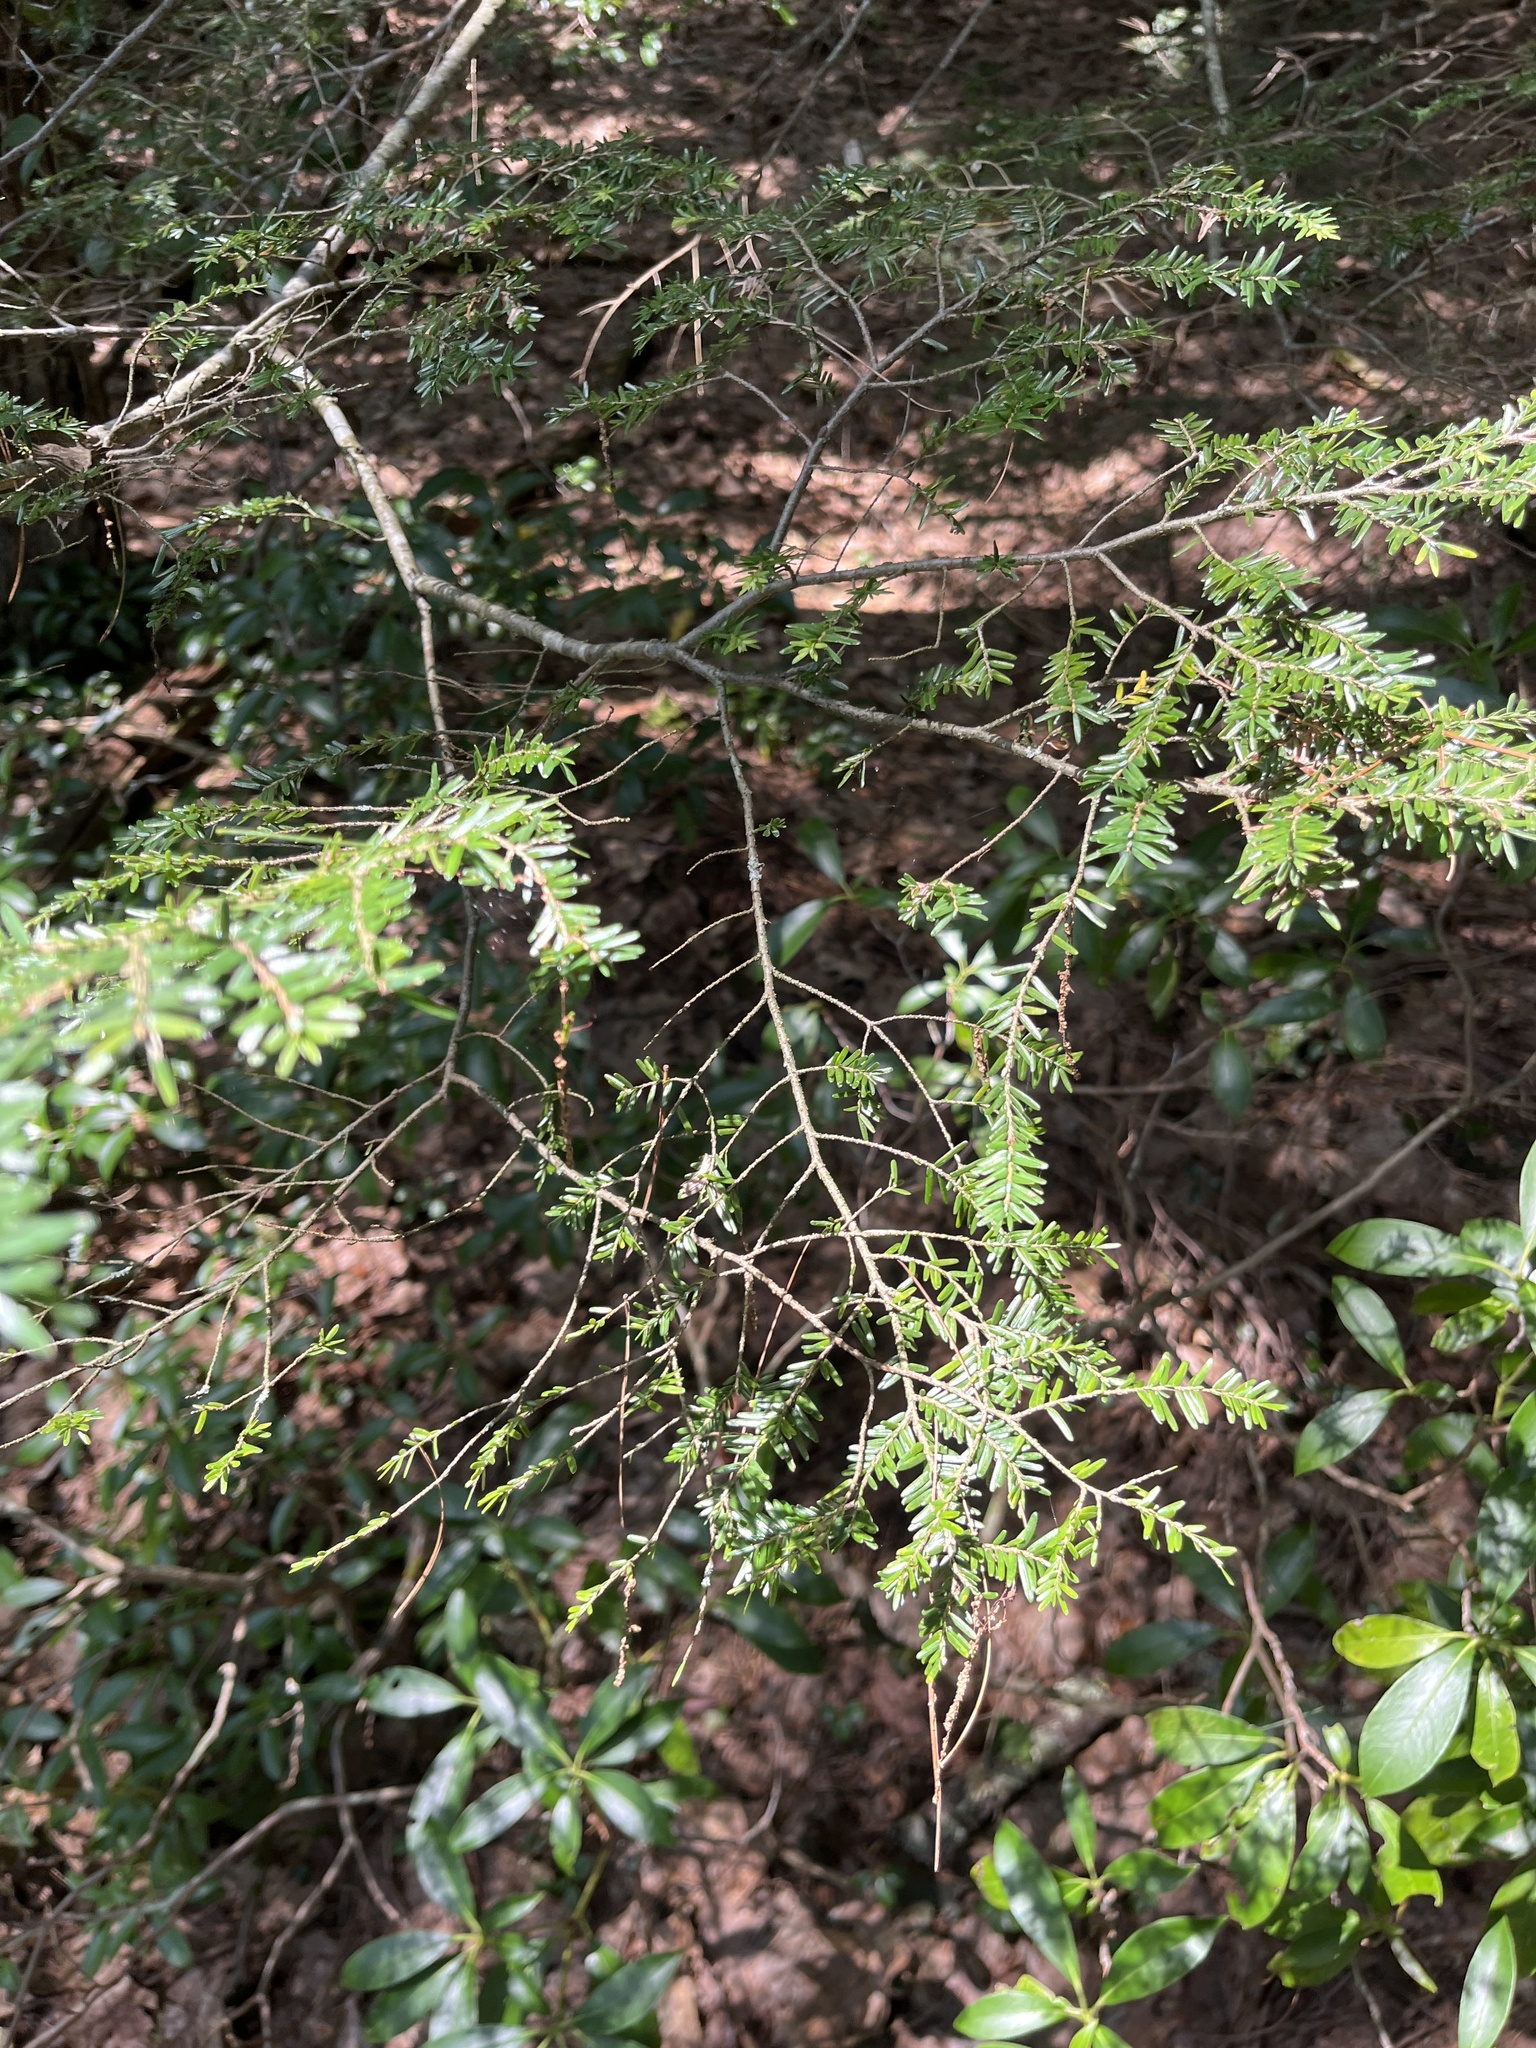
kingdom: Plantae
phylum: Tracheophyta
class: Pinopsida
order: Pinales
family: Pinaceae
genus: Tsuga
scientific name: Tsuga canadensis
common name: Eastern hemlock
